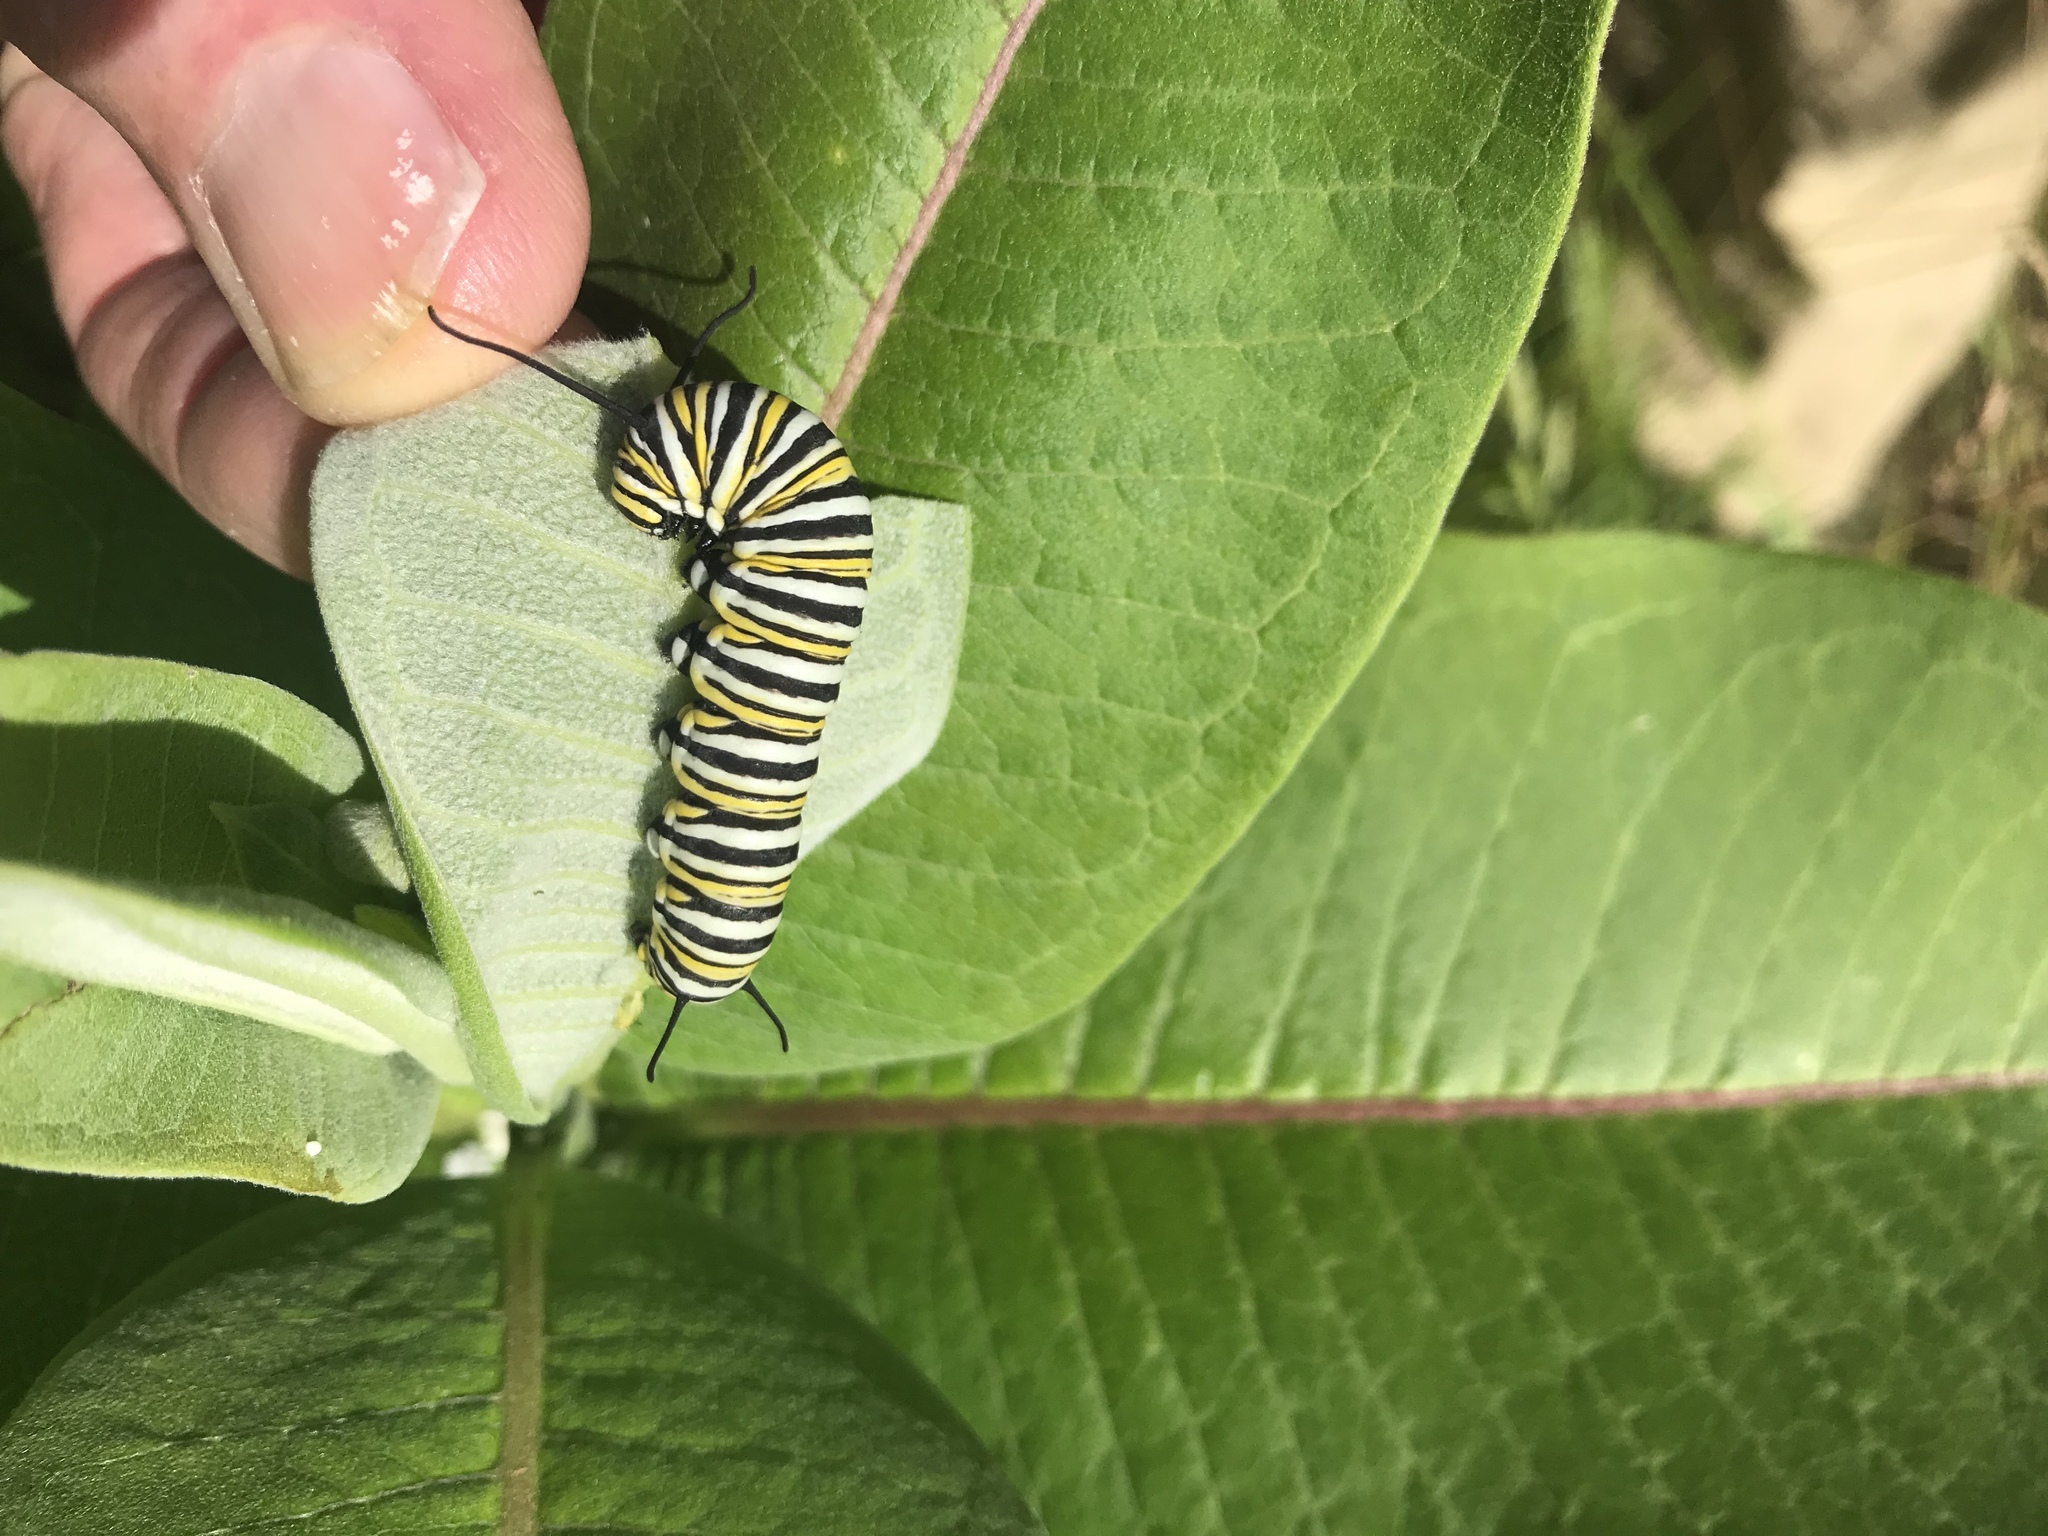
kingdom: Animalia
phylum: Arthropoda
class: Insecta
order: Lepidoptera
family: Nymphalidae
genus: Danaus
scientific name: Danaus plexippus
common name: Monarch
